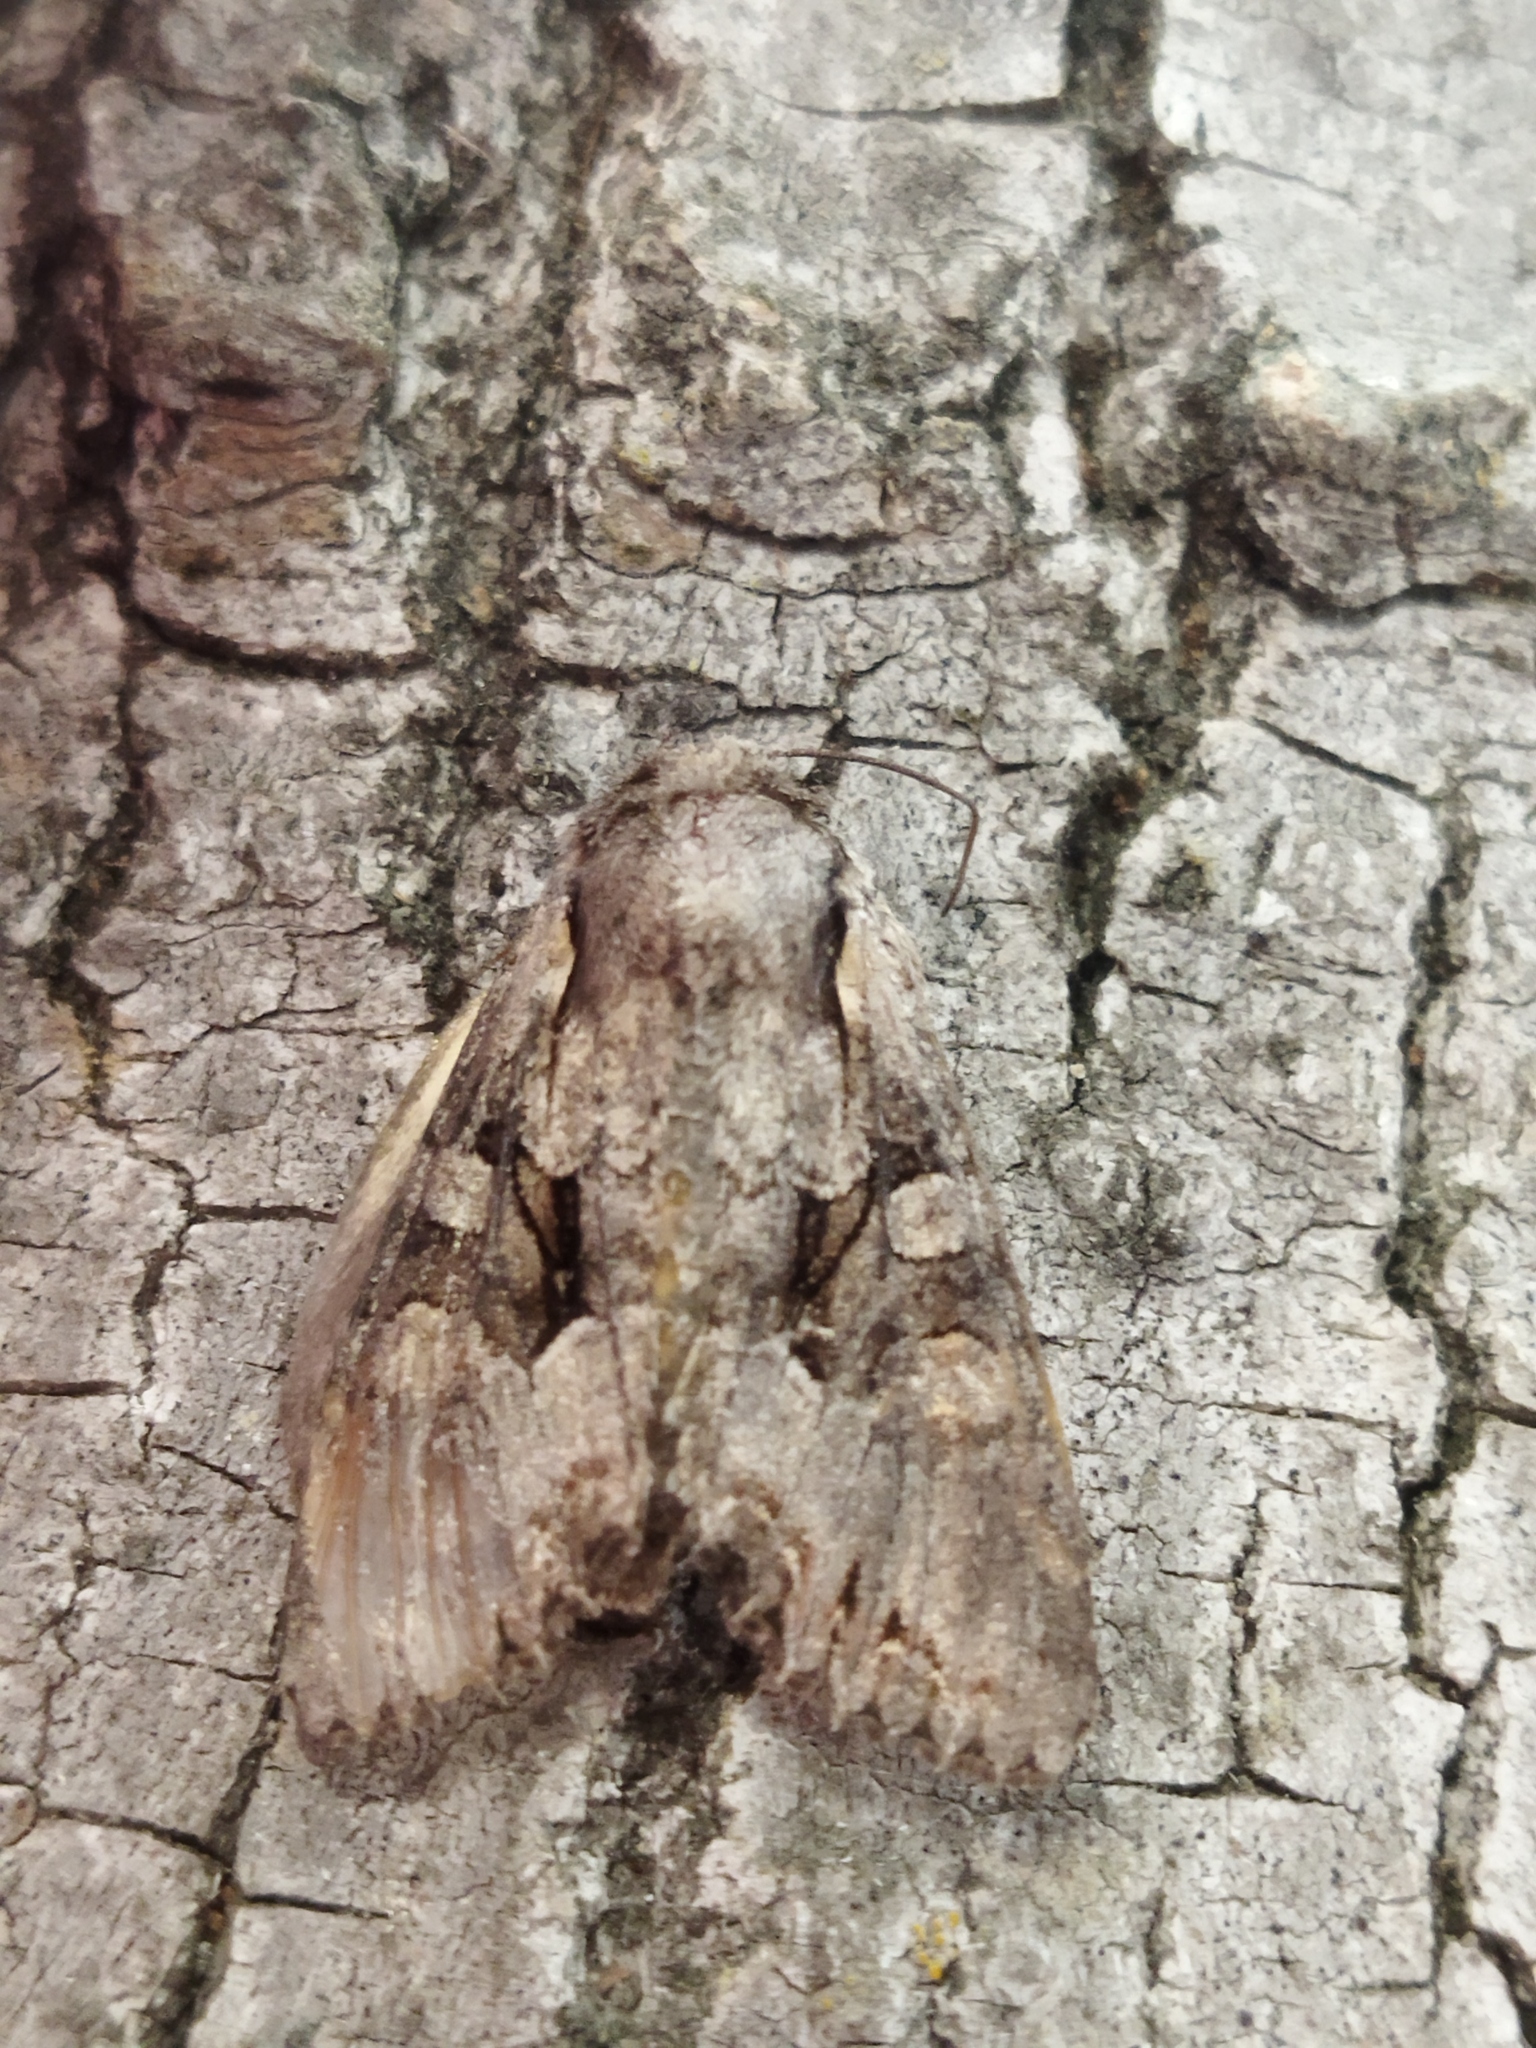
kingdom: Animalia
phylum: Arthropoda
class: Insecta
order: Lepidoptera
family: Noctuidae
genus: Lacanobia
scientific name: Lacanobia w-latinum
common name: Light brocade
